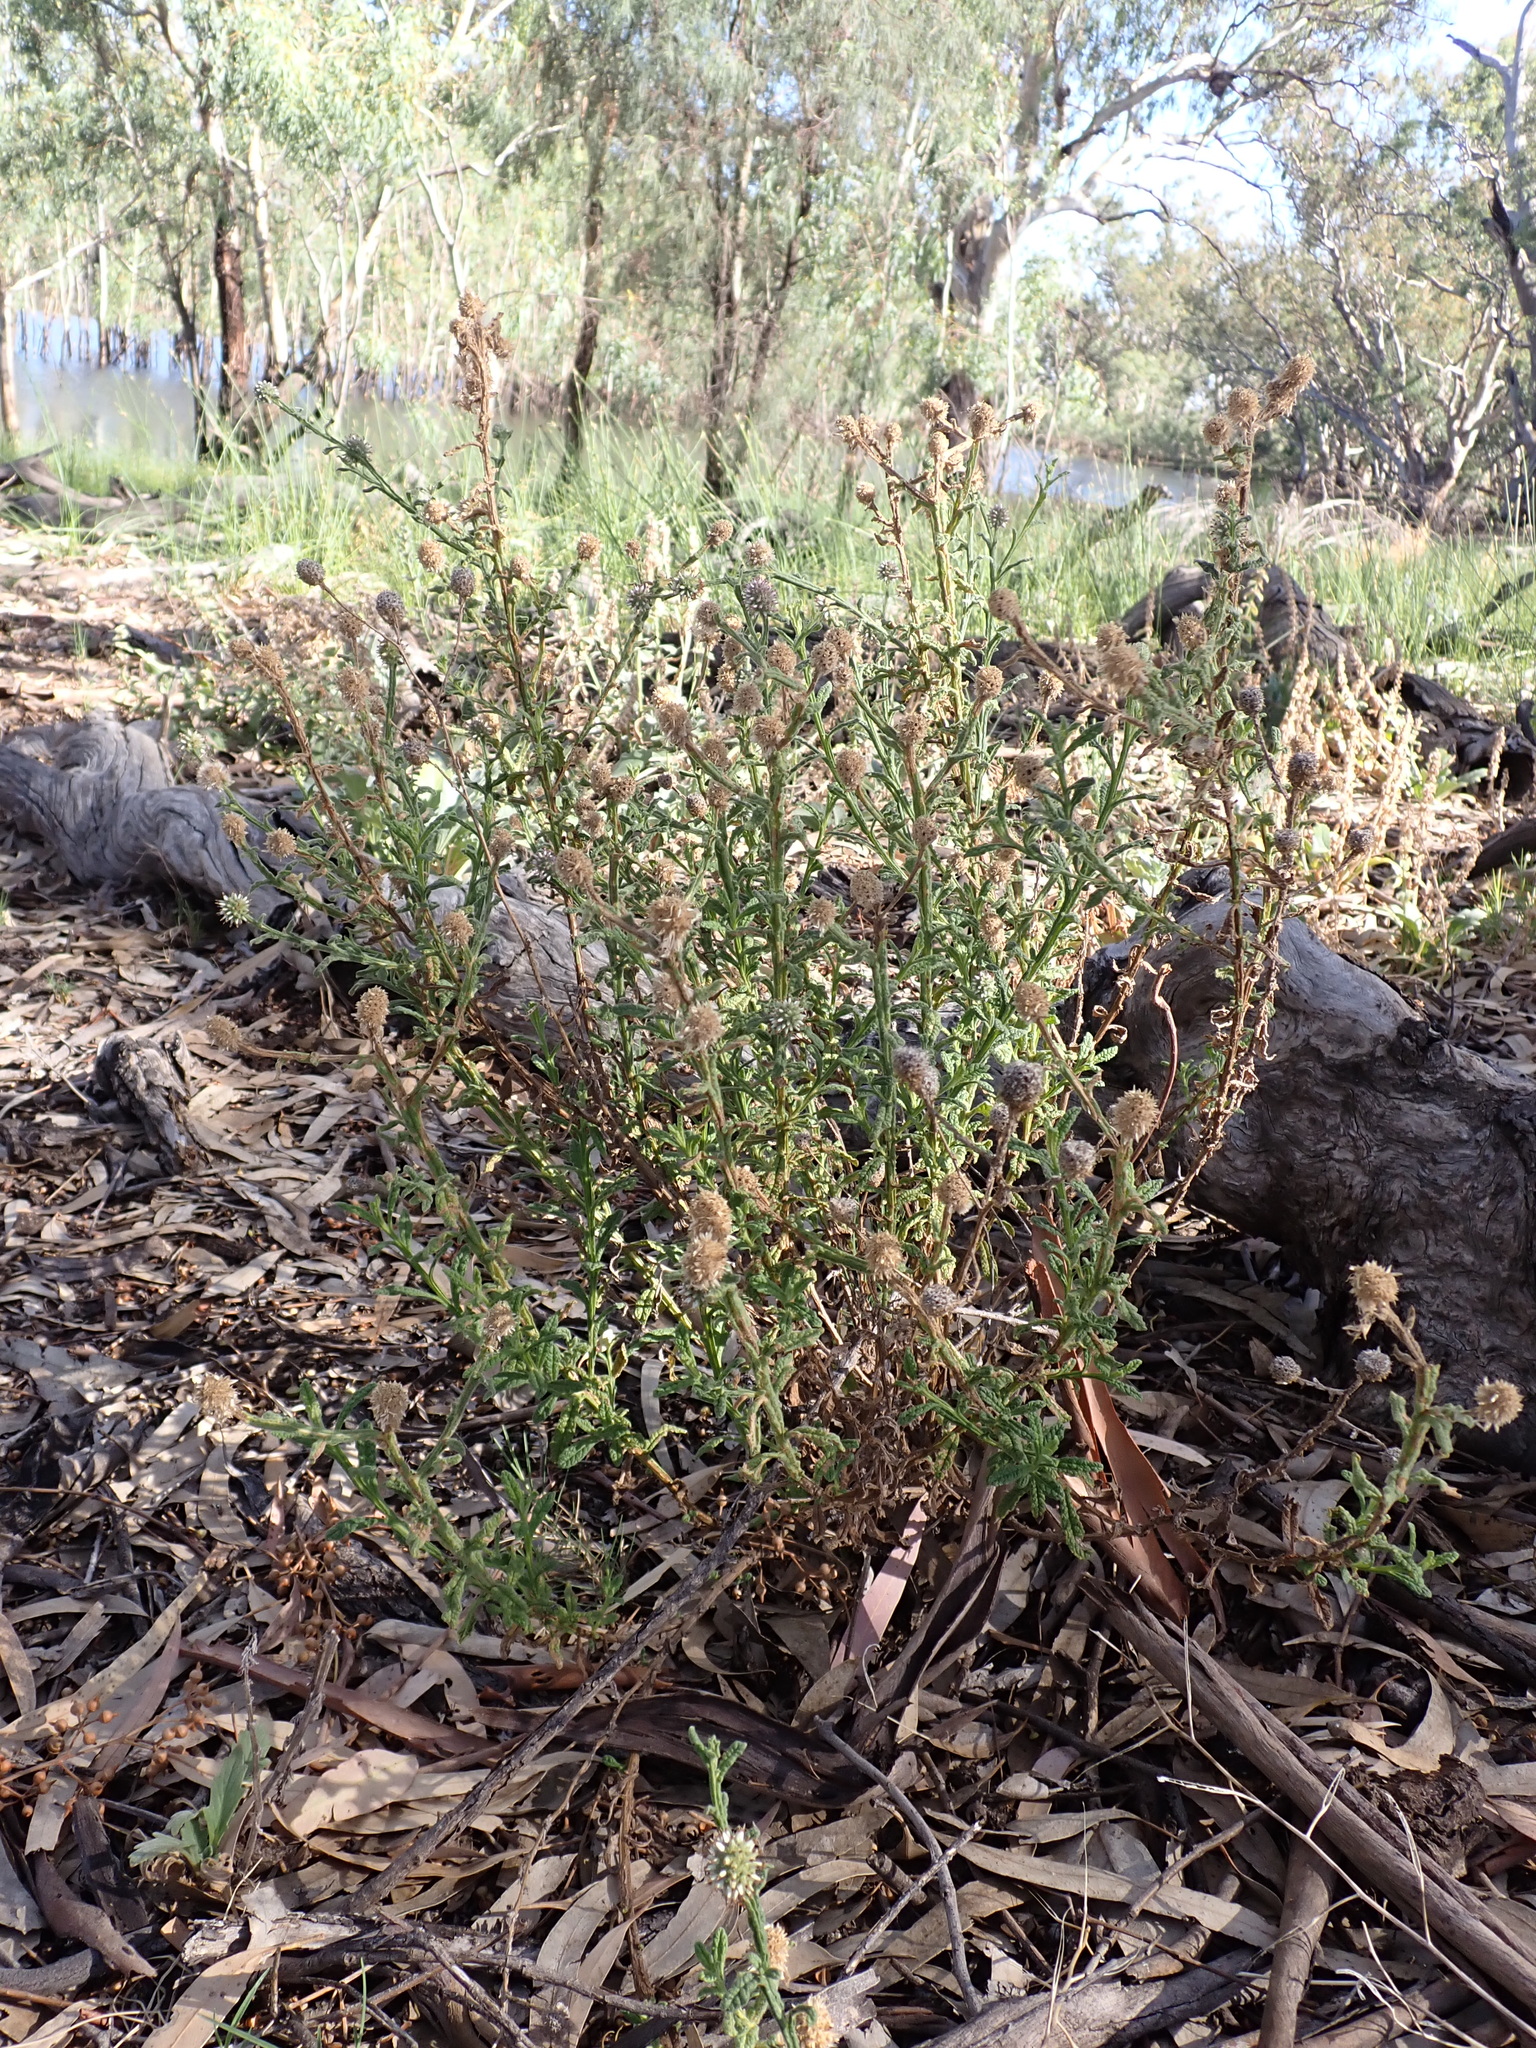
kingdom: Plantae
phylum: Tracheophyta
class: Magnoliopsida
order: Asterales
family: Asteraceae
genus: Pterocaulon
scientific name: Pterocaulon sphacelatum
